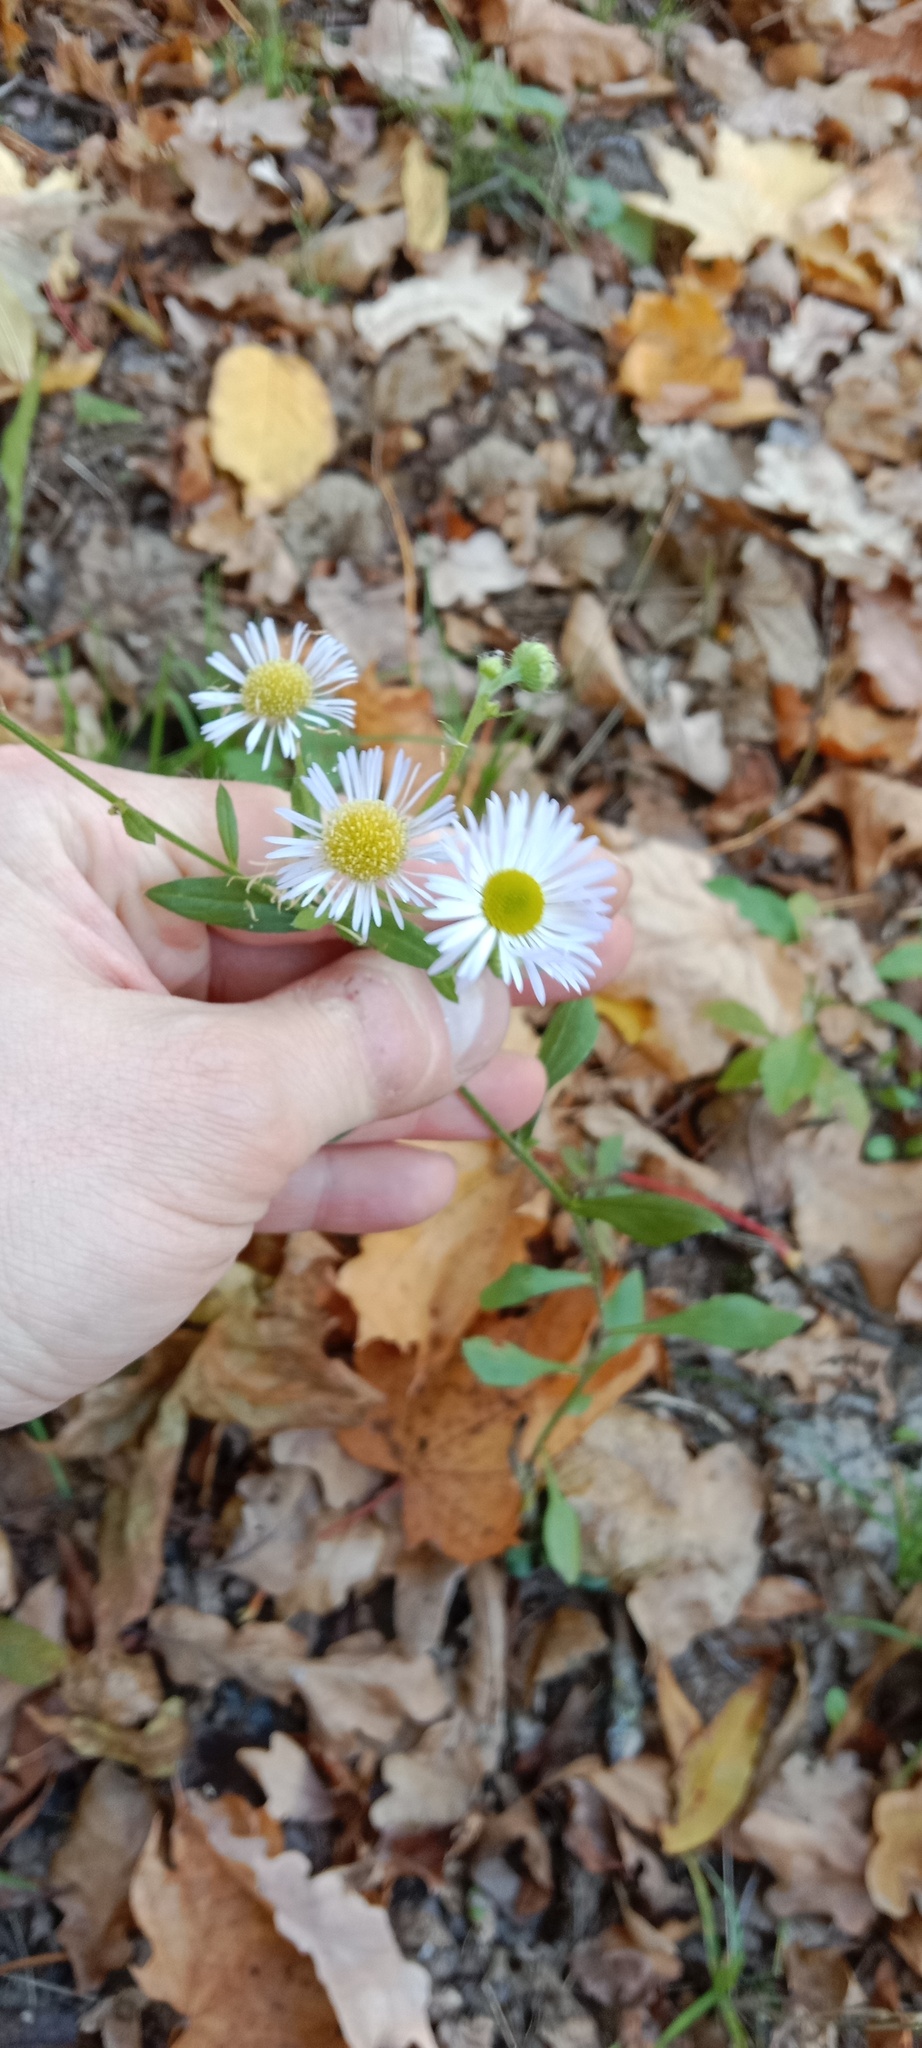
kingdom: Plantae
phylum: Tracheophyta
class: Magnoliopsida
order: Asterales
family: Asteraceae
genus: Erigeron
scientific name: Erigeron annuus
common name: Tall fleabane
